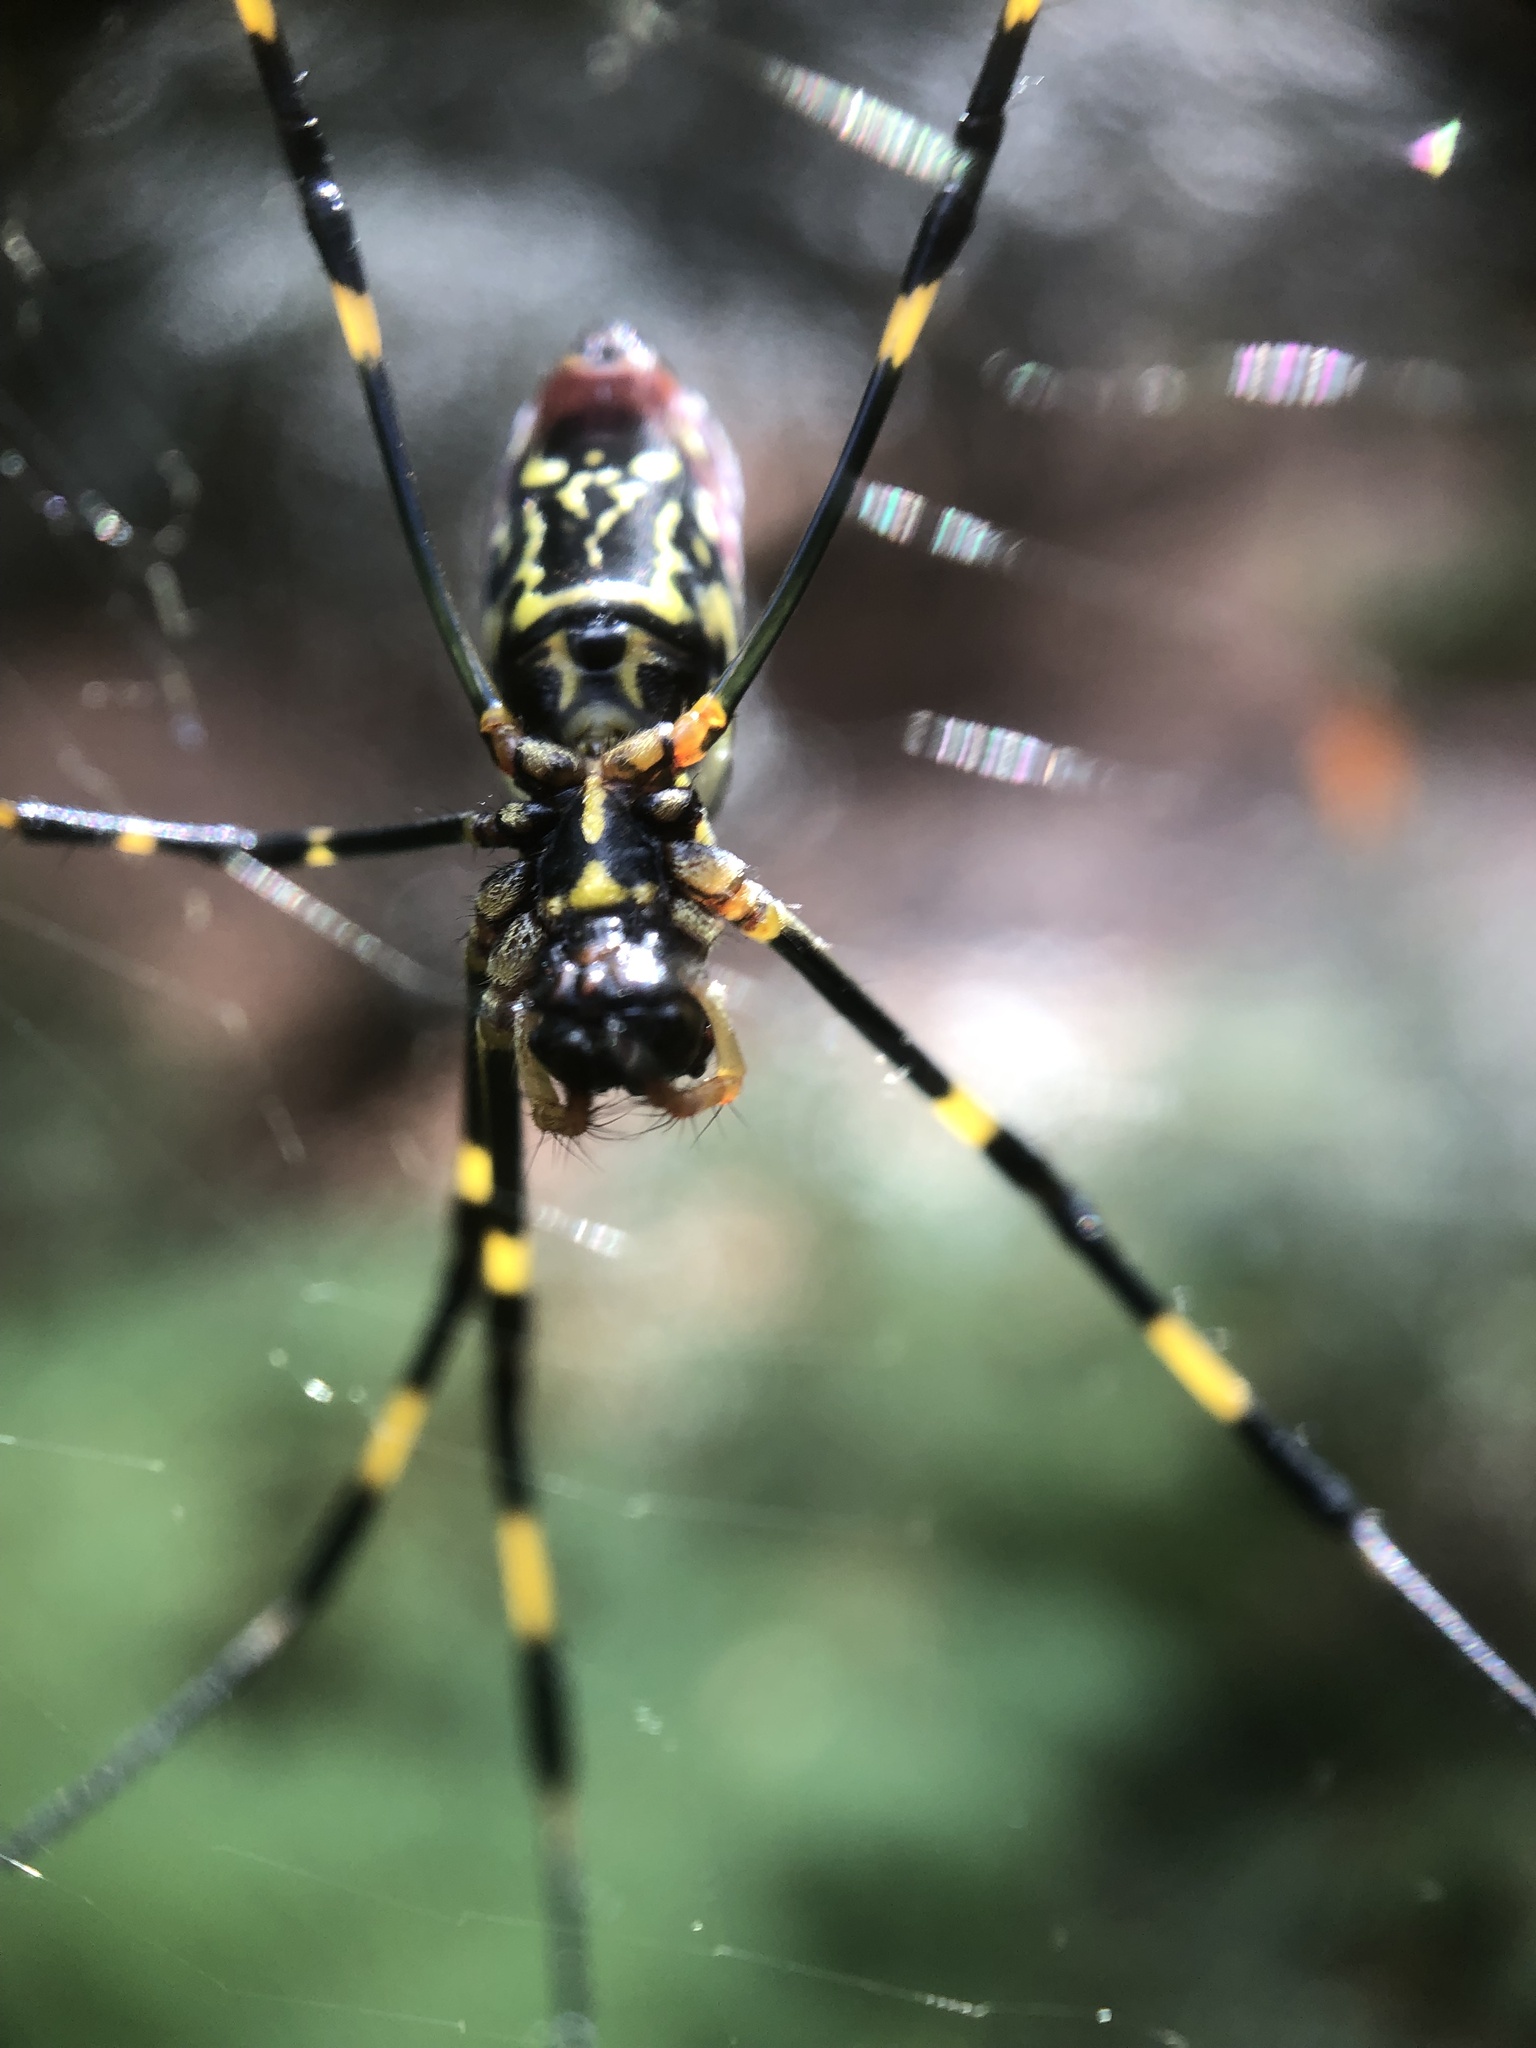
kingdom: Animalia
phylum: Arthropoda
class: Arachnida
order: Araneae
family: Araneidae
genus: Trichonephila
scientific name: Trichonephila clavata
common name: Jorō spider
